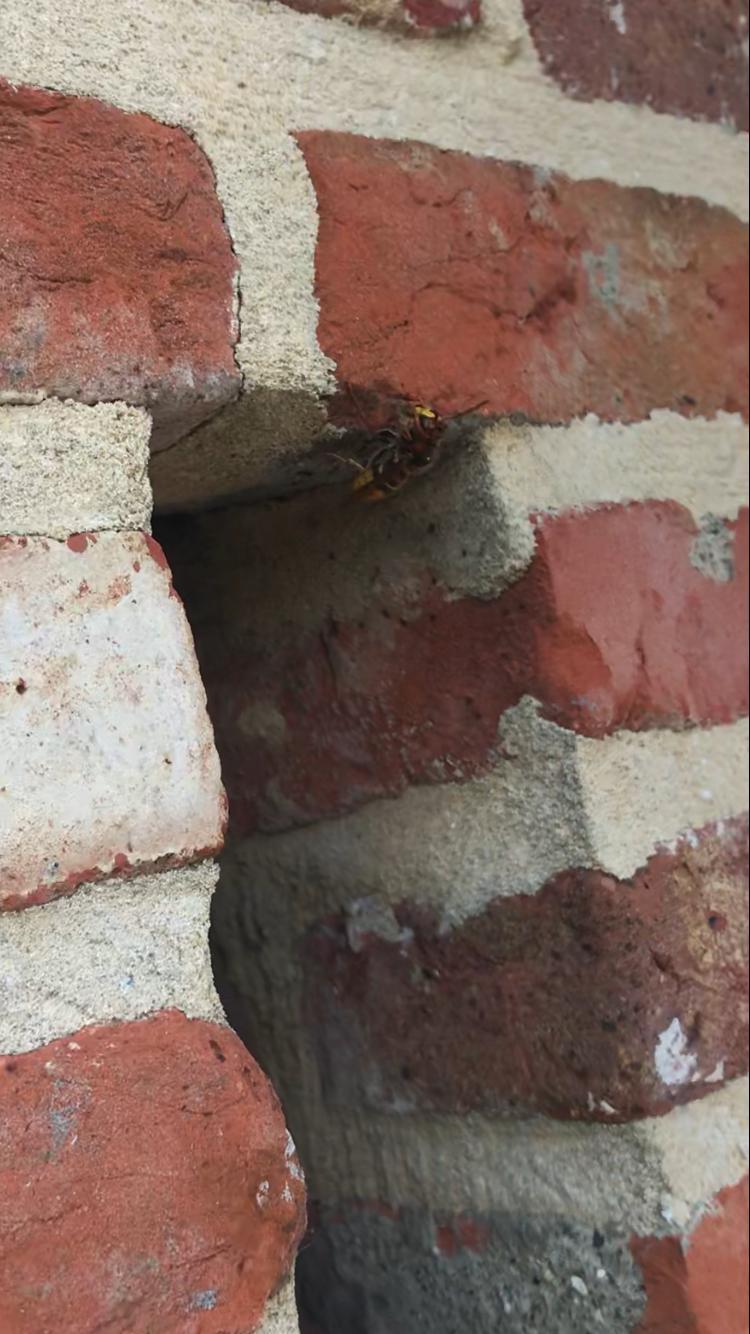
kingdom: Animalia
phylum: Arthropoda
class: Insecta
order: Hymenoptera
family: Vespidae
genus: Vespa
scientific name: Vespa crabro
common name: Hornet
